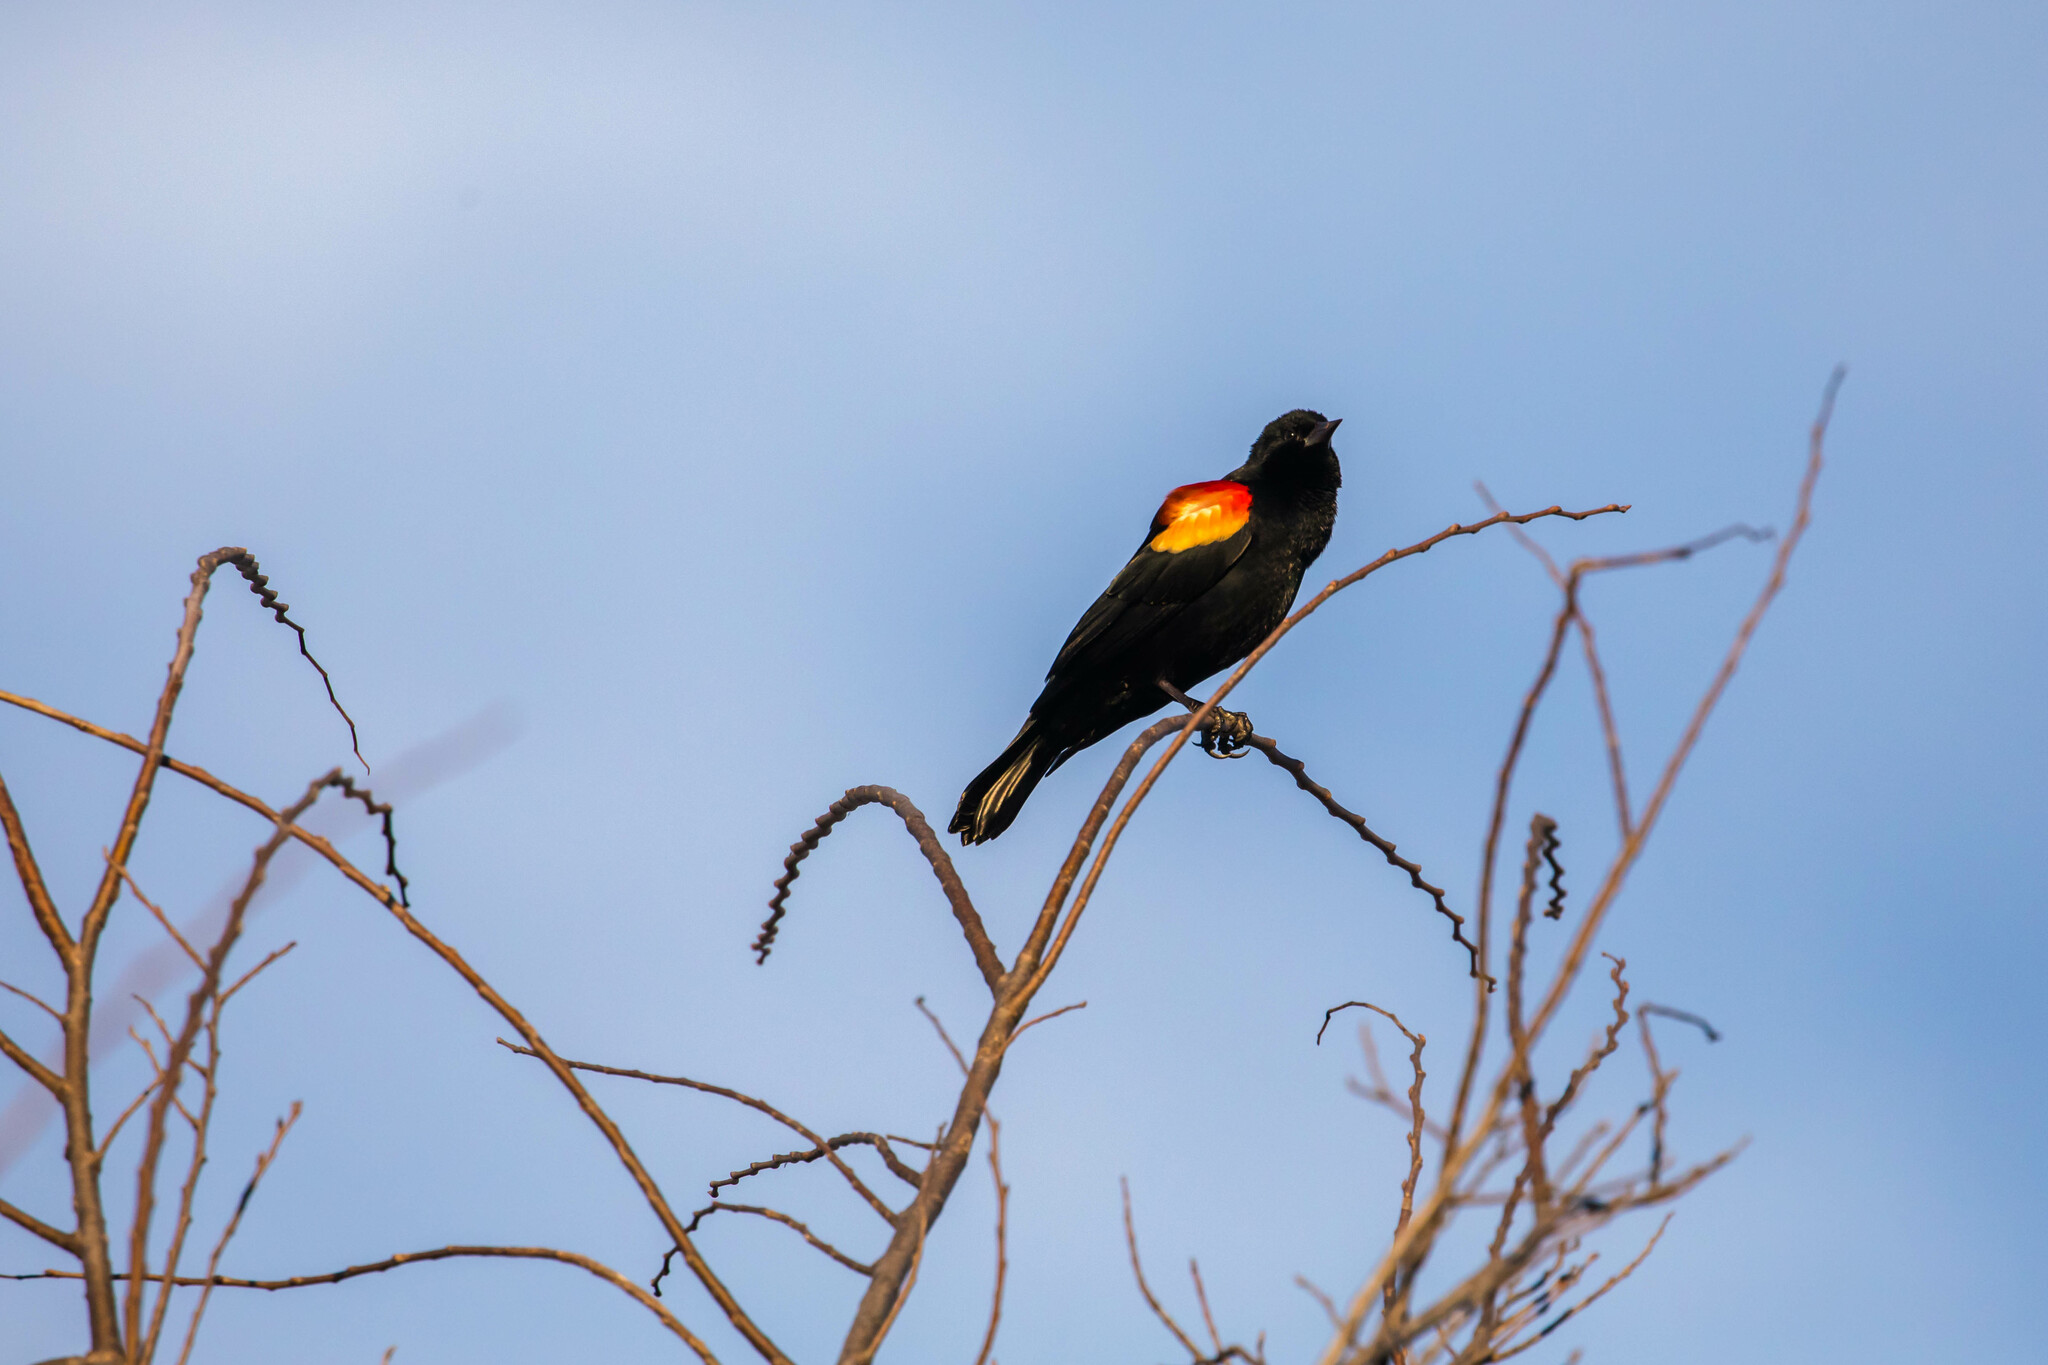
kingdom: Animalia
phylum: Chordata
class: Aves
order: Passeriformes
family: Icteridae
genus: Agelaius
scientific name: Agelaius phoeniceus
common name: Red-winged blackbird
